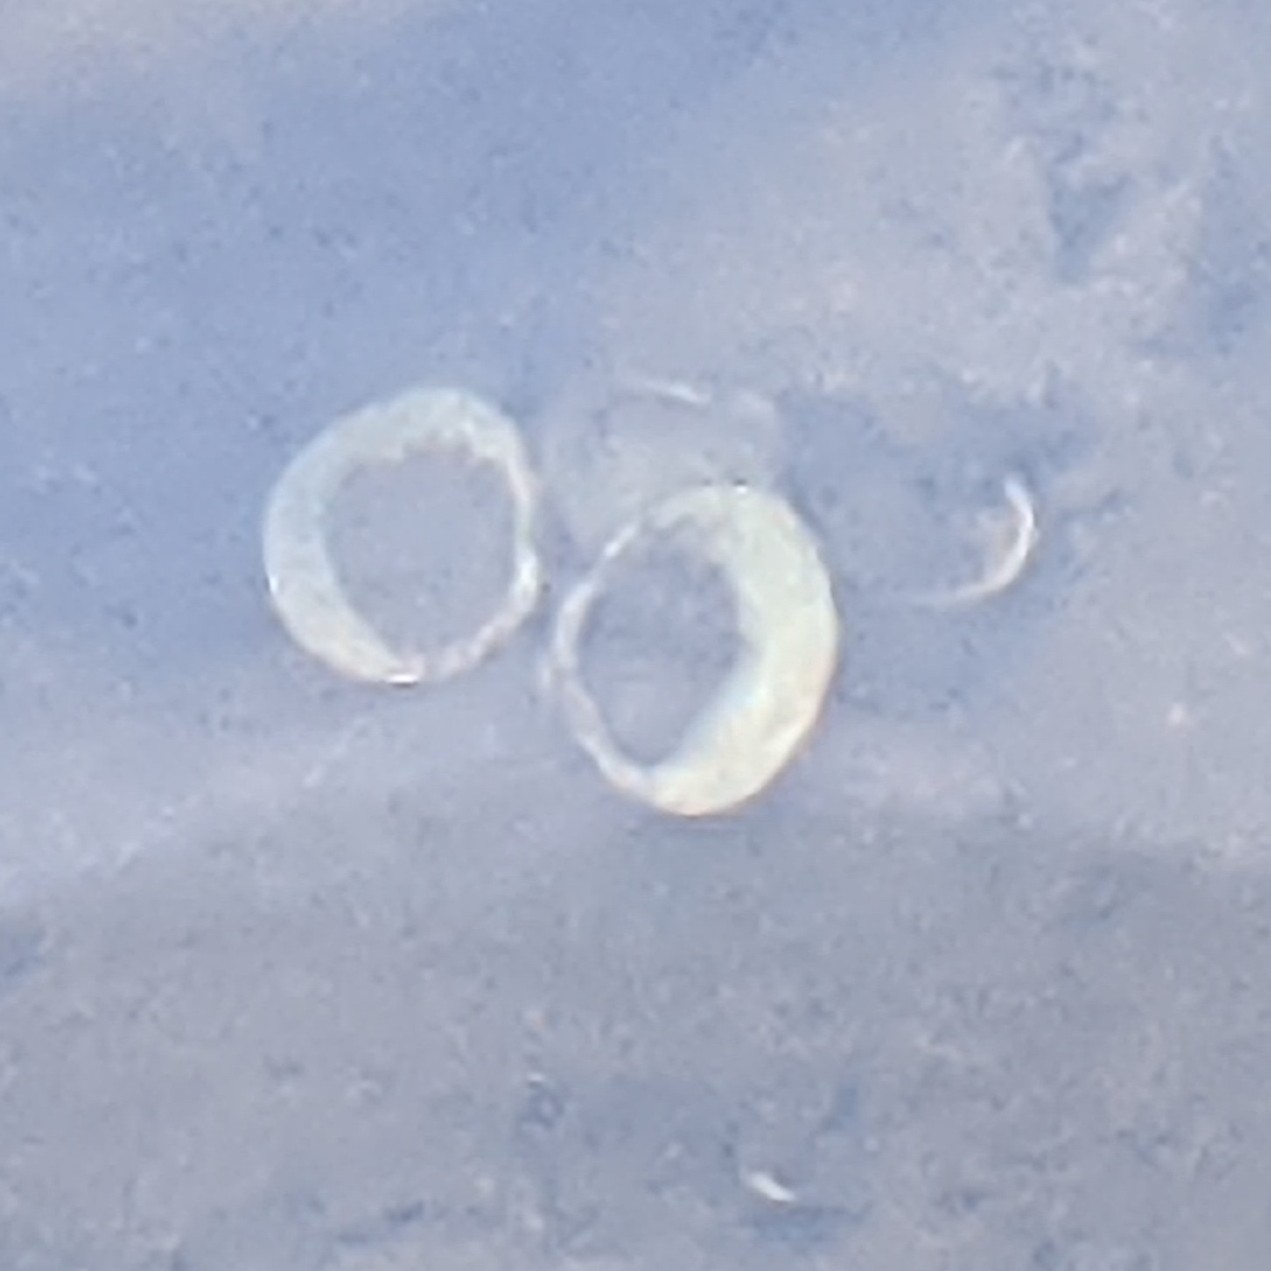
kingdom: Animalia
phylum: Mollusca
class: Bivalvia
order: Venerida
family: Cyrenidae
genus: Corbicula
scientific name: Corbicula fluminea
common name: Asian clam
